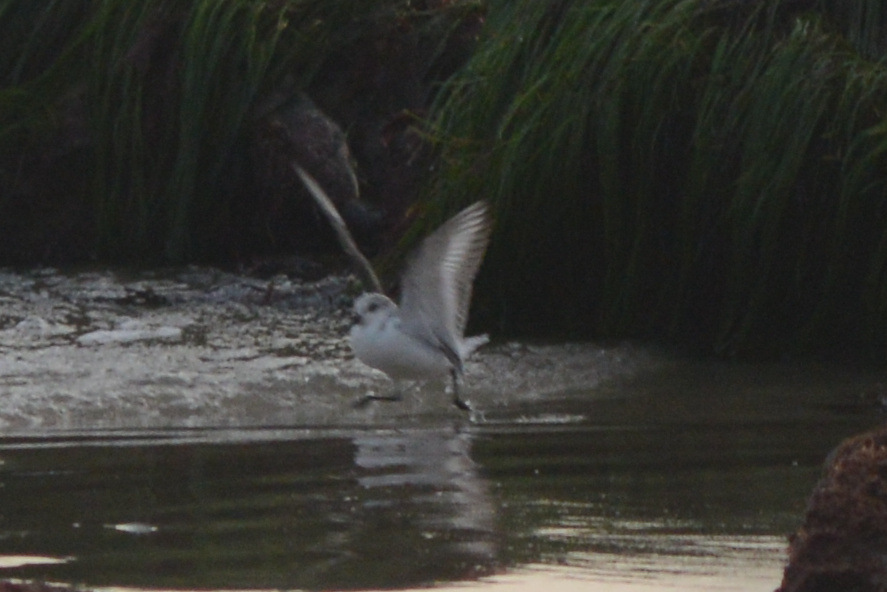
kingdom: Animalia
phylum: Chordata
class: Aves
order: Charadriiformes
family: Scolopacidae
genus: Calidris
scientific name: Calidris alba
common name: Sanderling
